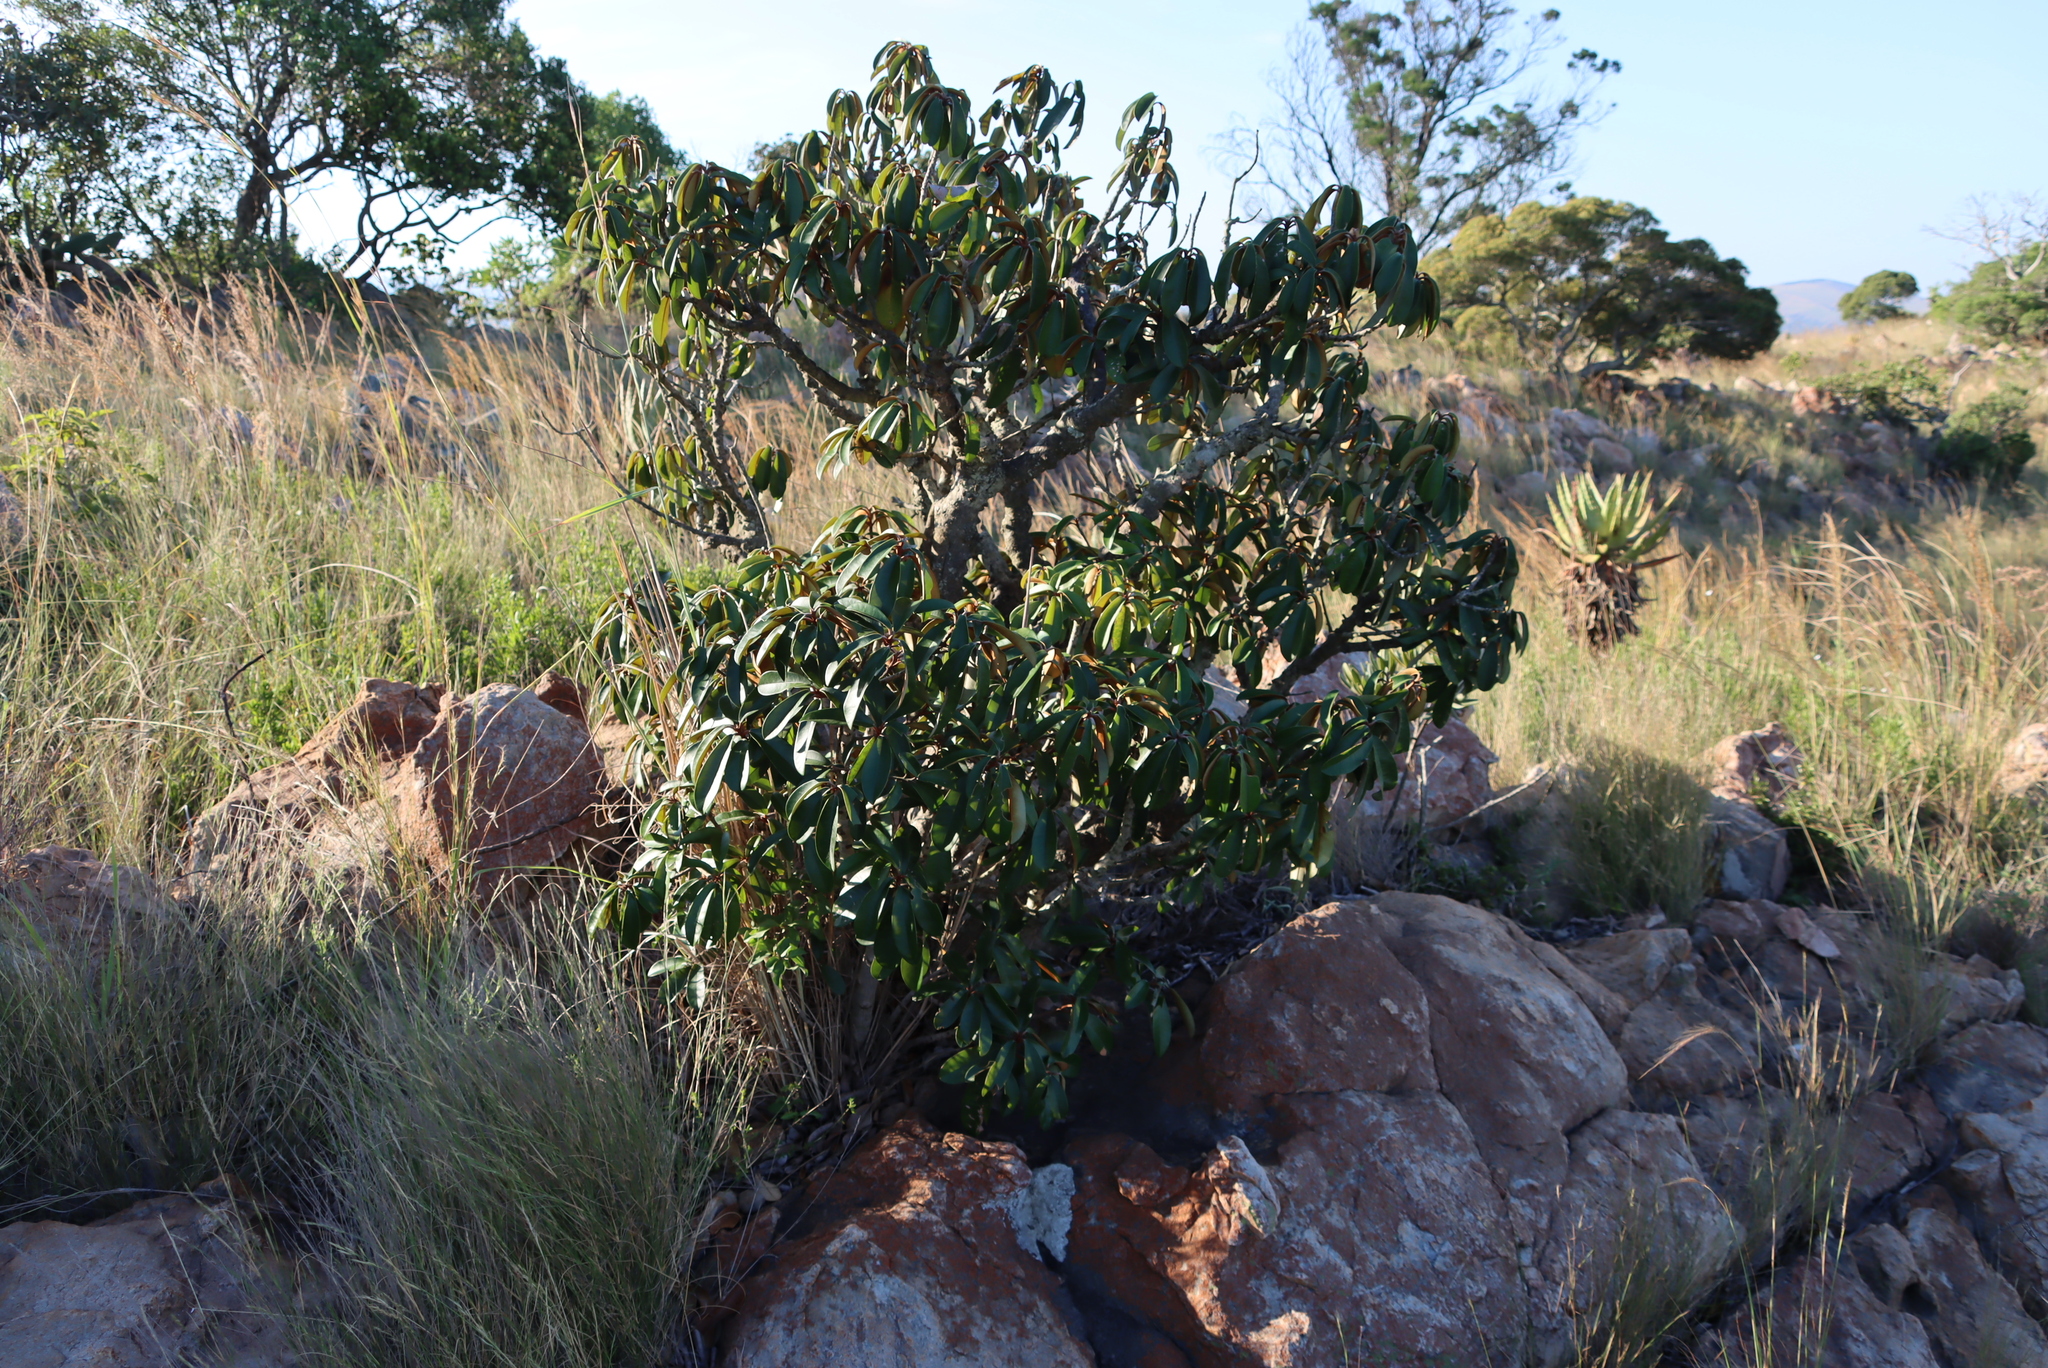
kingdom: Plantae
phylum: Tracheophyta
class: Magnoliopsida
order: Ericales
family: Sapotaceae
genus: Englerophytum
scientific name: Englerophytum magalismontanum
